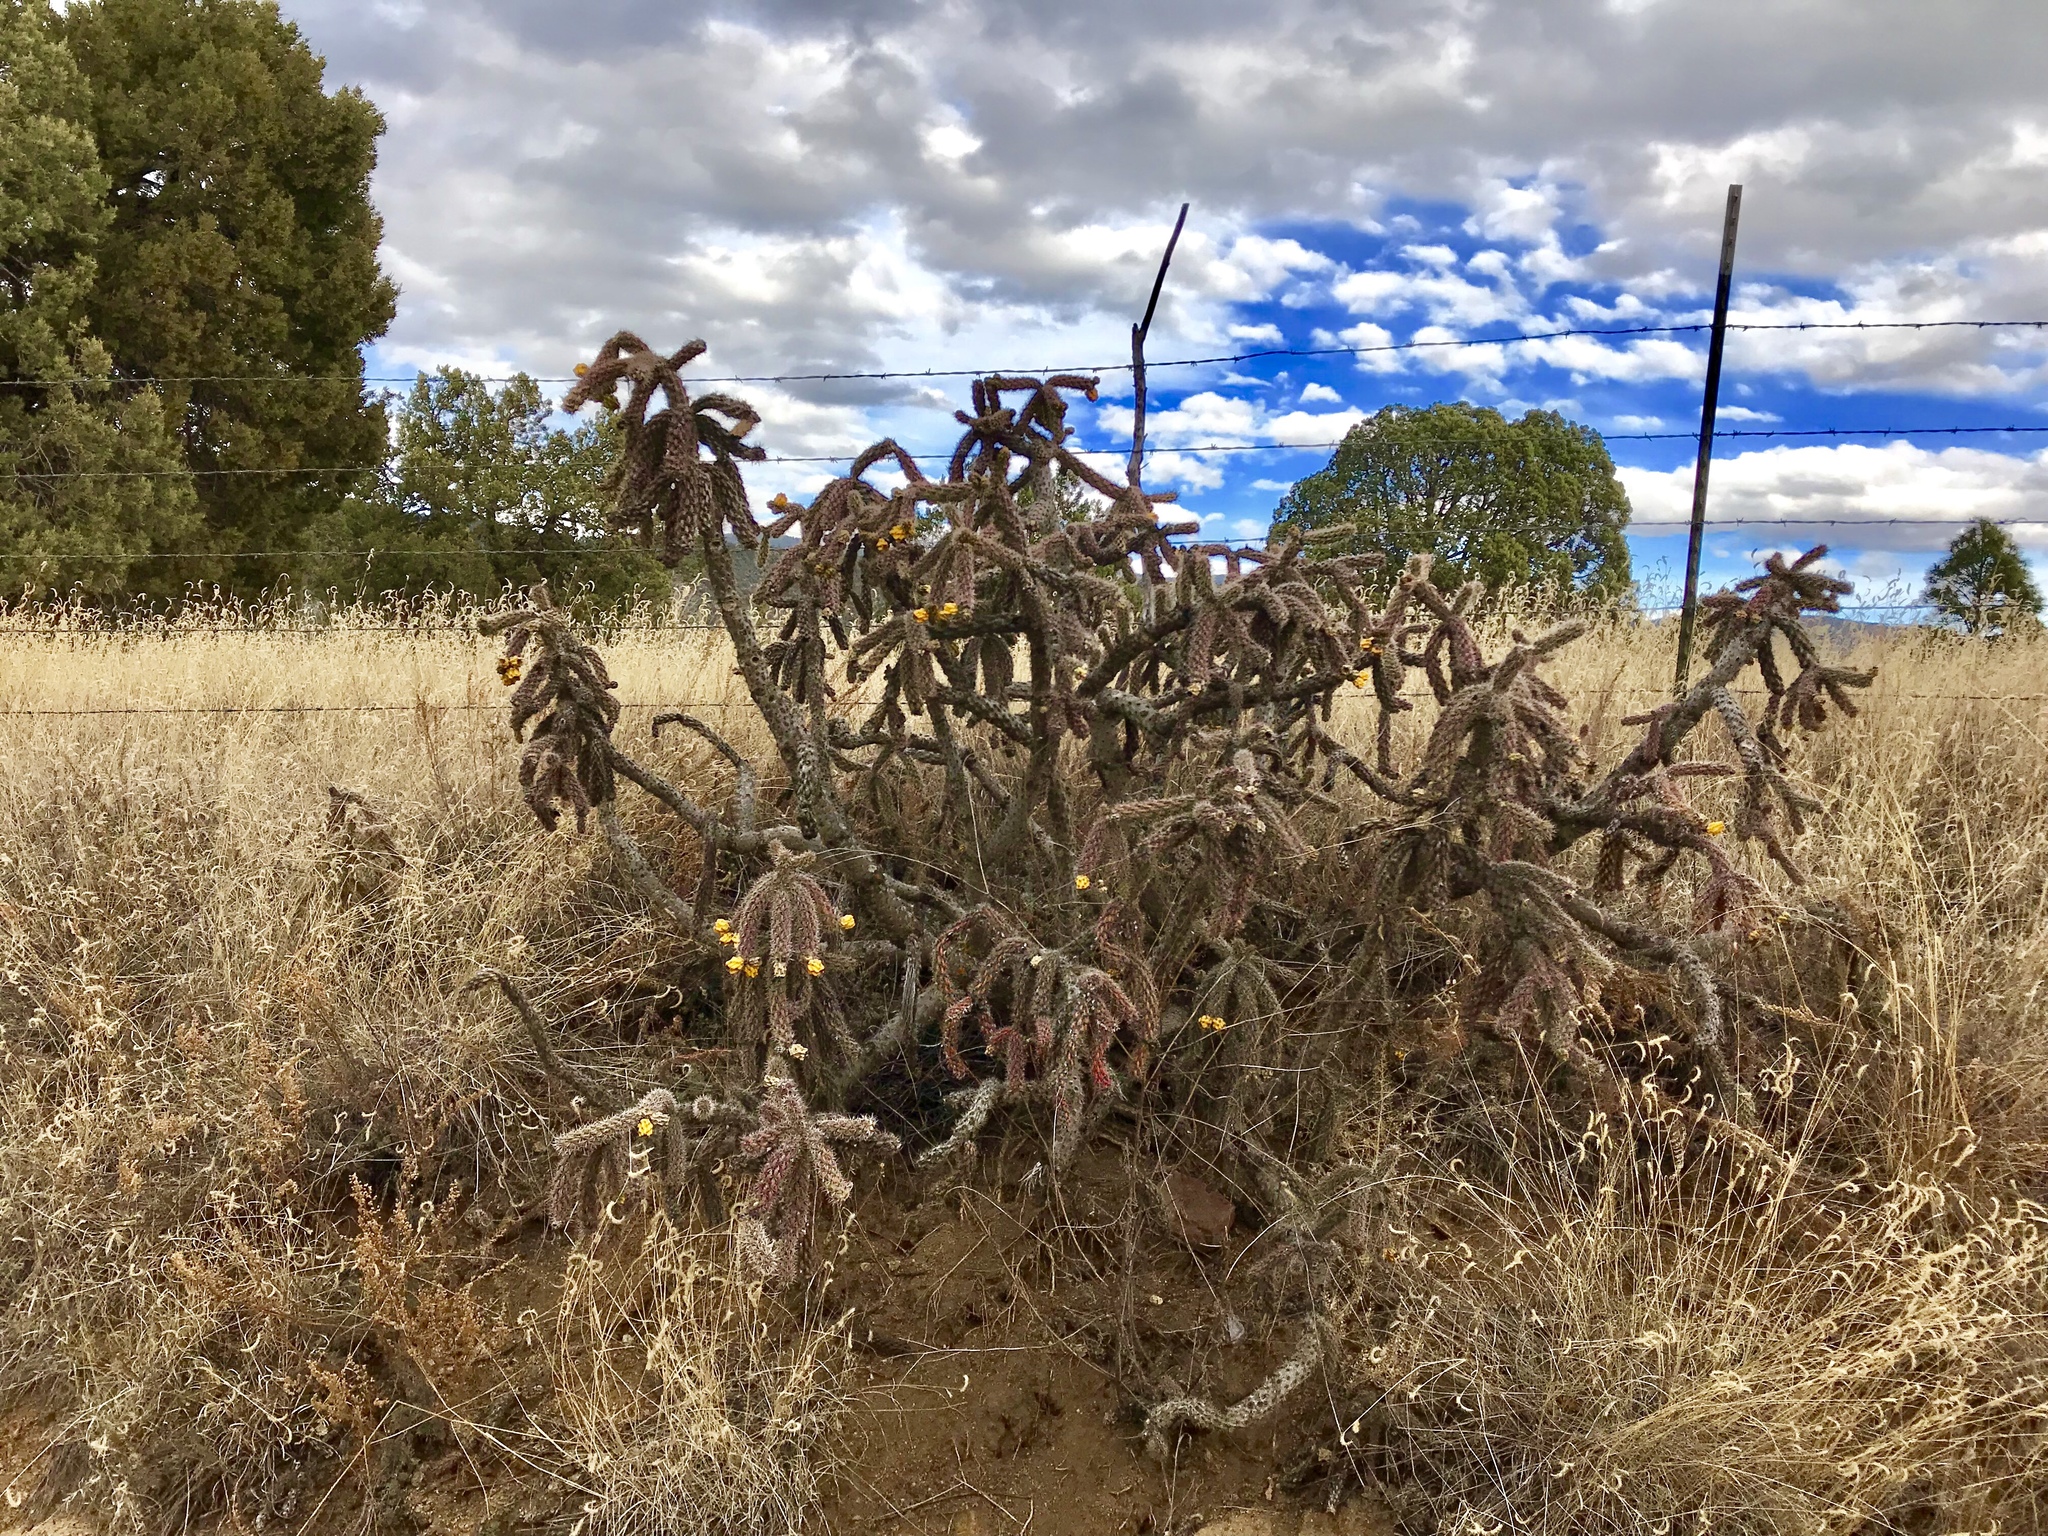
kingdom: Plantae
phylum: Tracheophyta
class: Magnoliopsida
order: Caryophyllales
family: Cactaceae
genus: Cylindropuntia
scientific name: Cylindropuntia imbricata
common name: Candelabrum cactus
